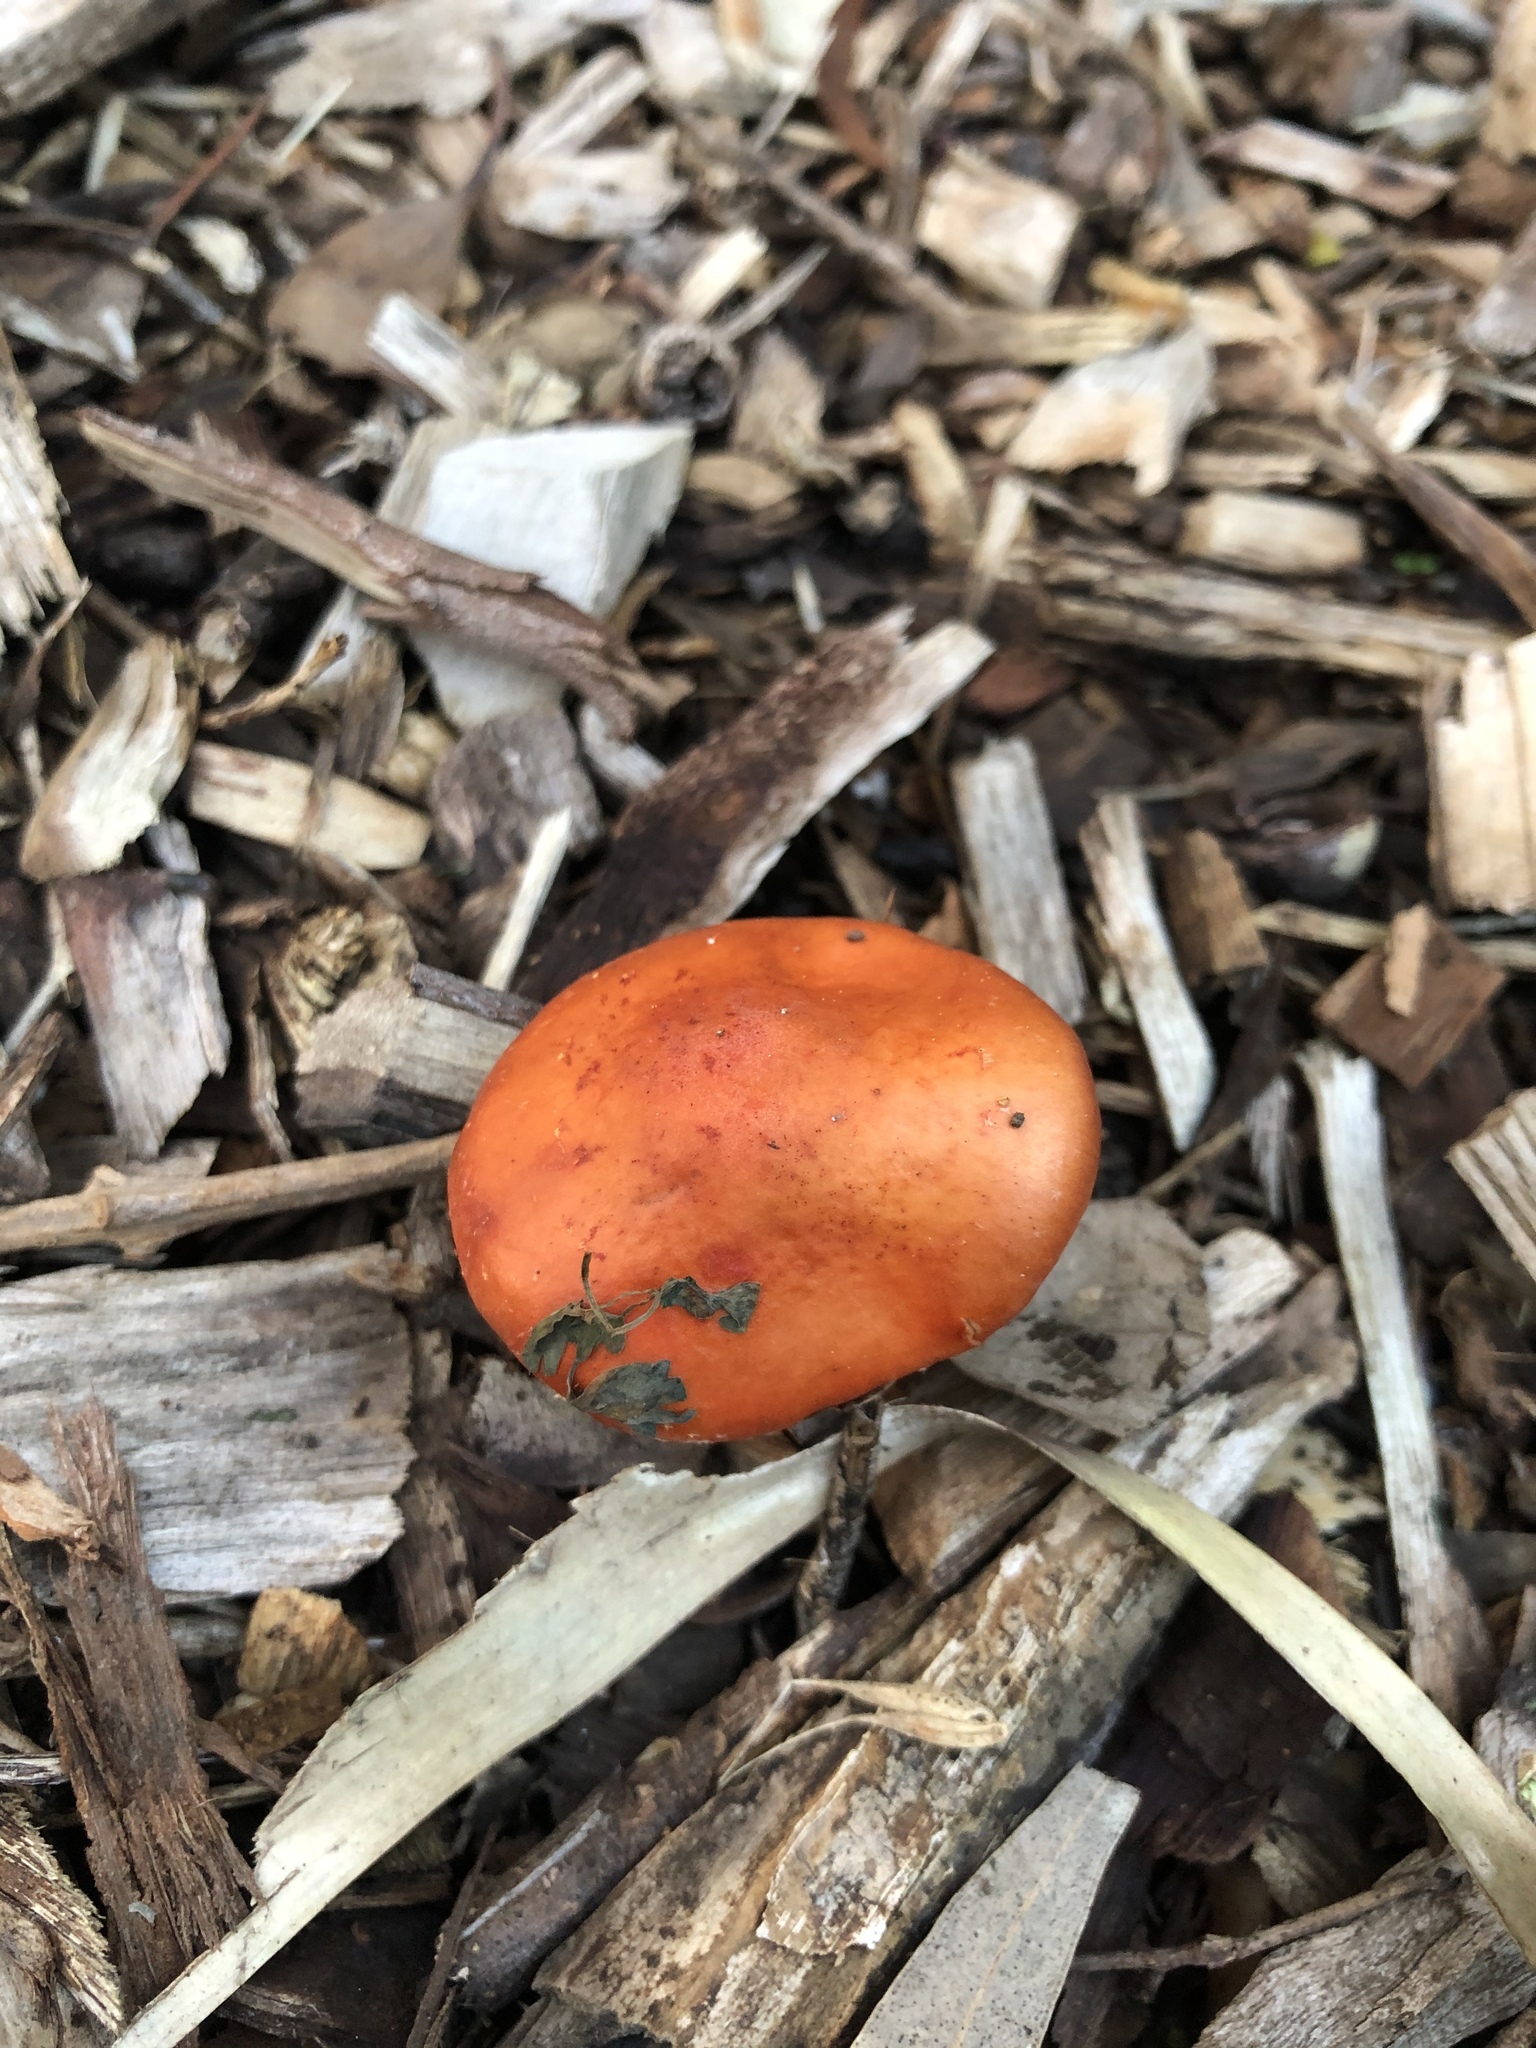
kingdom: Fungi
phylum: Basidiomycota
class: Agaricomycetes
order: Agaricales
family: Strophariaceae
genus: Leratiomyces
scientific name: Leratiomyces ceres
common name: Redlead roundhead
